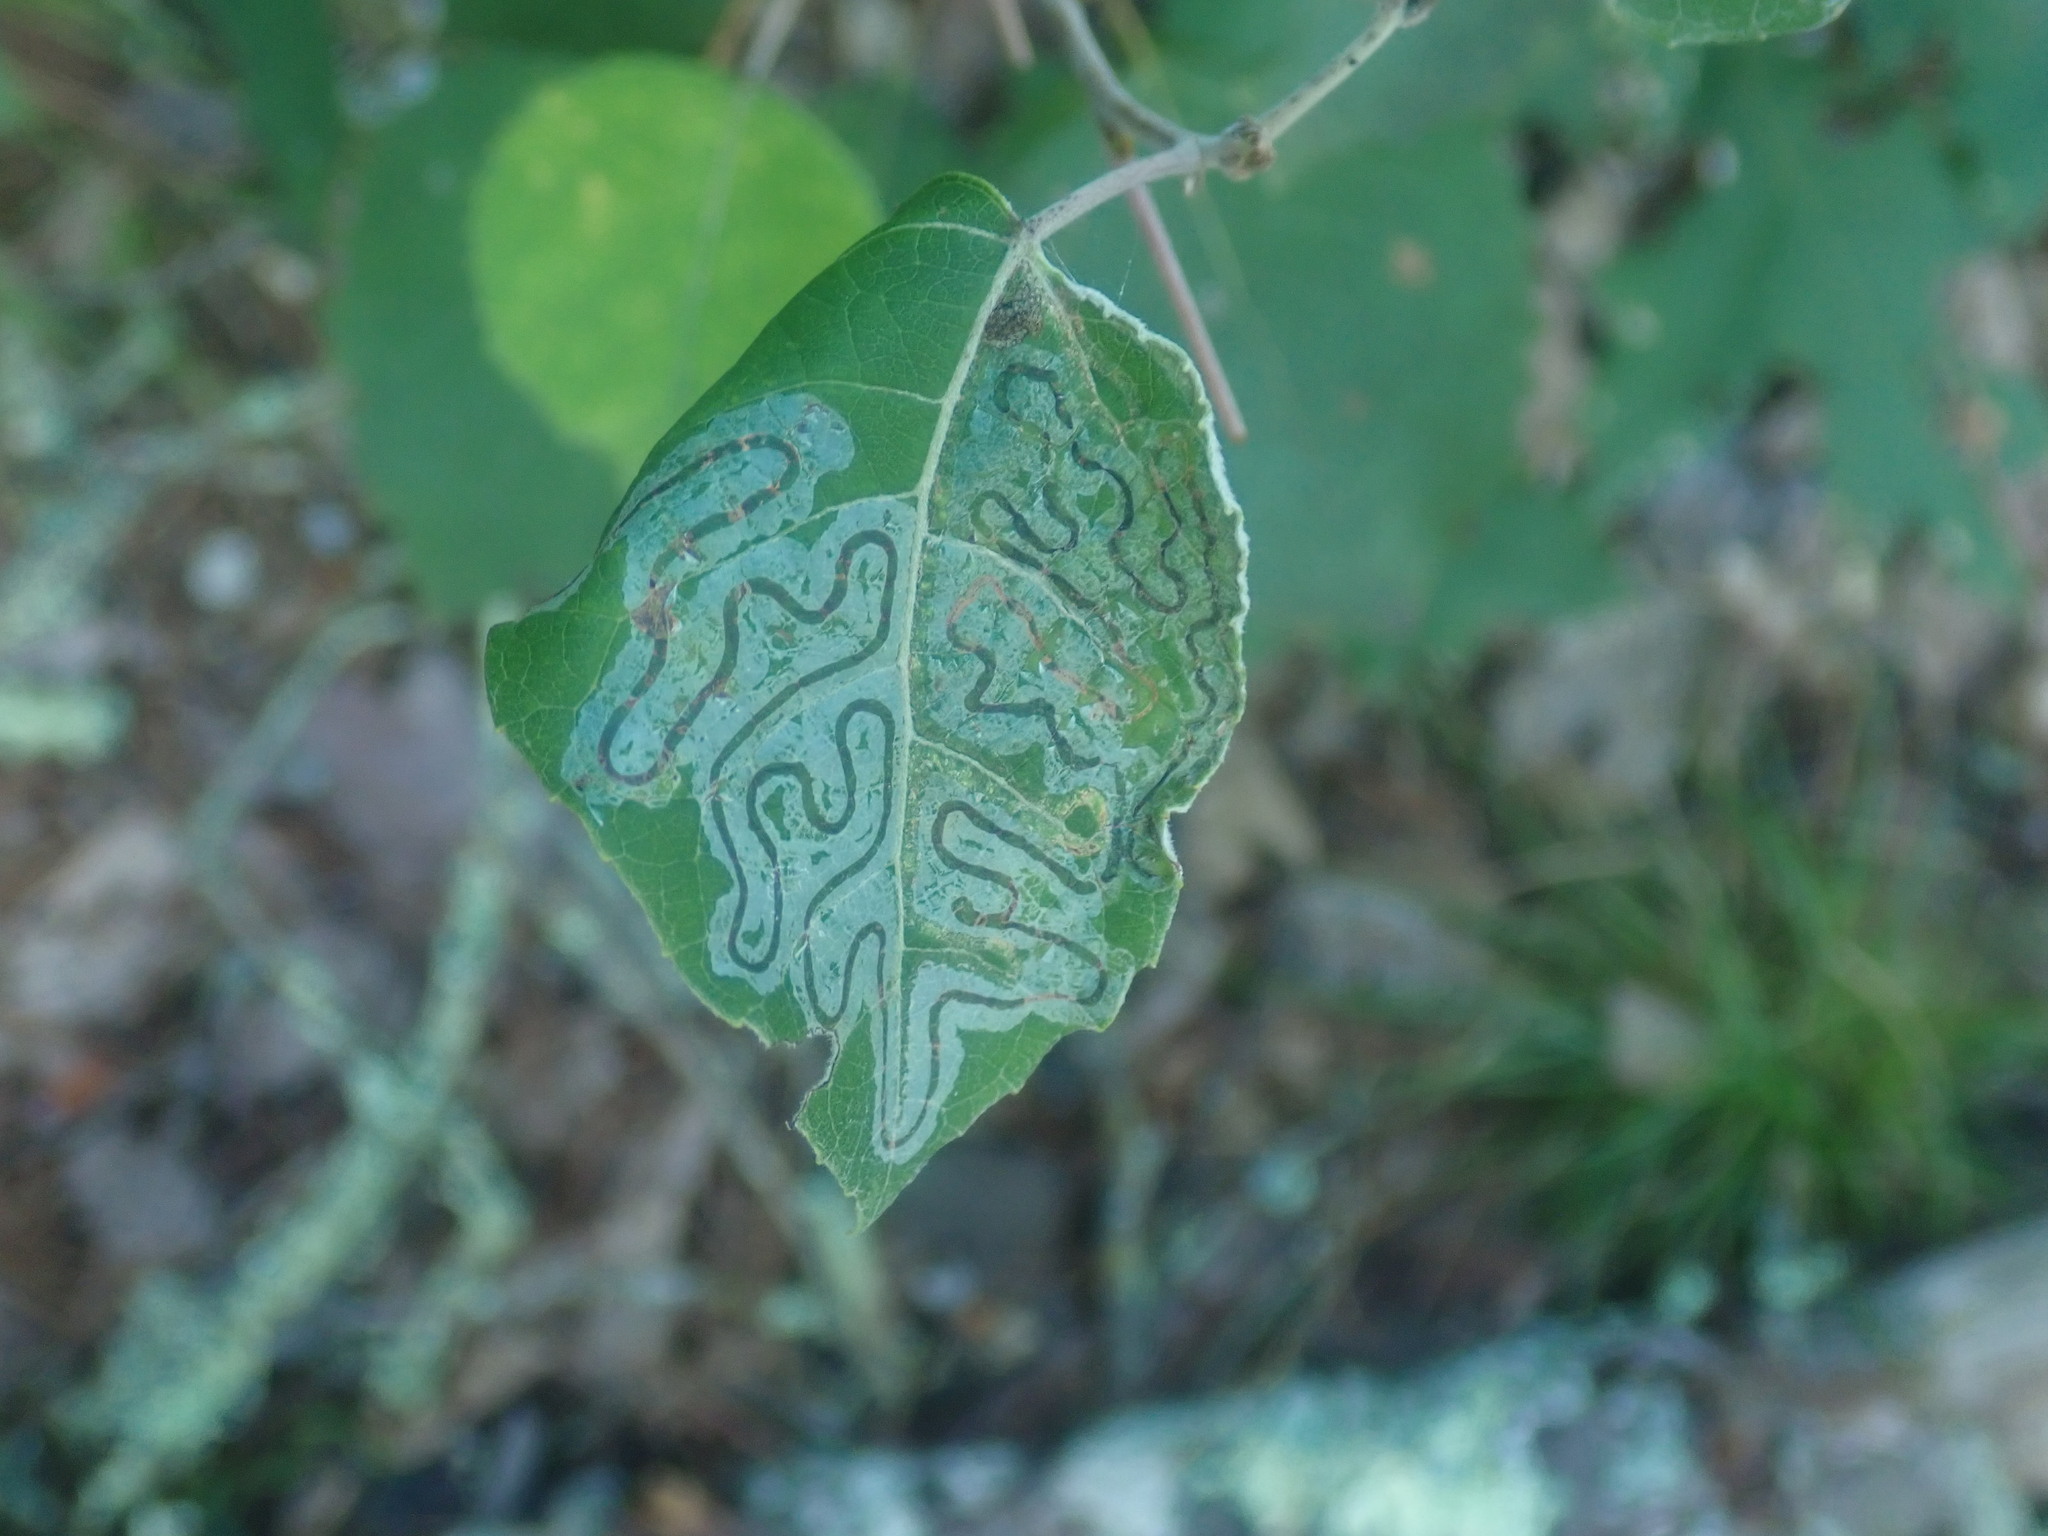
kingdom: Animalia
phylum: Arthropoda
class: Insecta
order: Lepidoptera
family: Gracillariidae
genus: Phyllocnistis
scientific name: Phyllocnistis populiella
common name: Aspen serpentine leafminer moth
